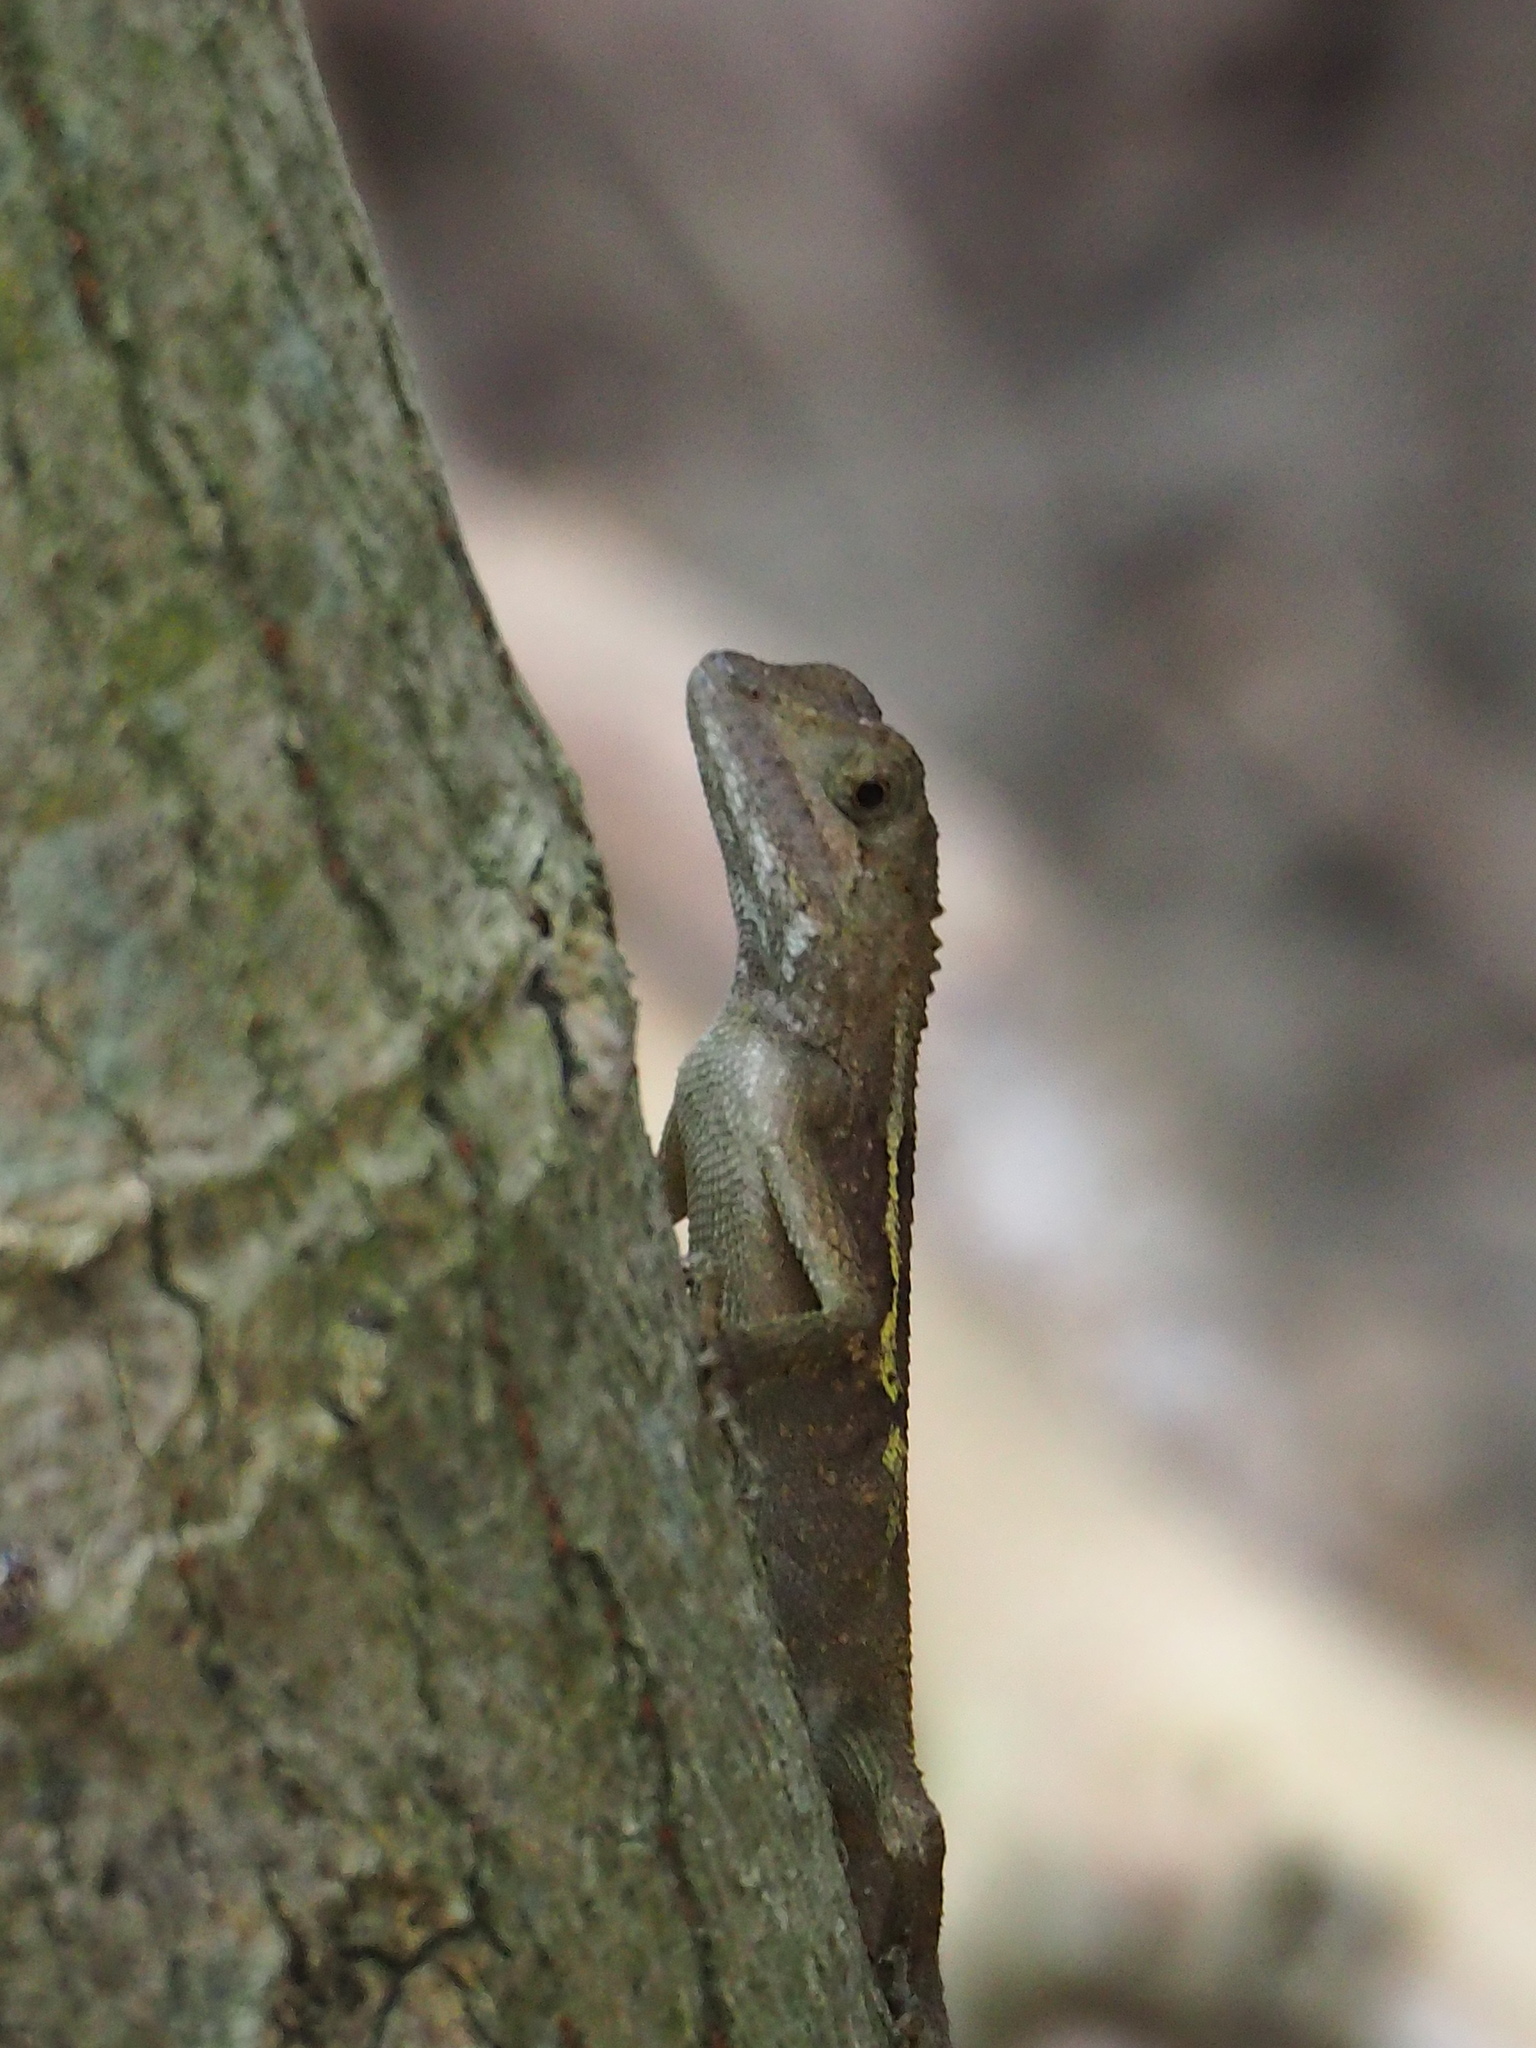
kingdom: Animalia
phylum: Chordata
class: Squamata
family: Agamidae
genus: Diploderma
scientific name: Diploderma swinhonis
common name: Taiwan japalure
